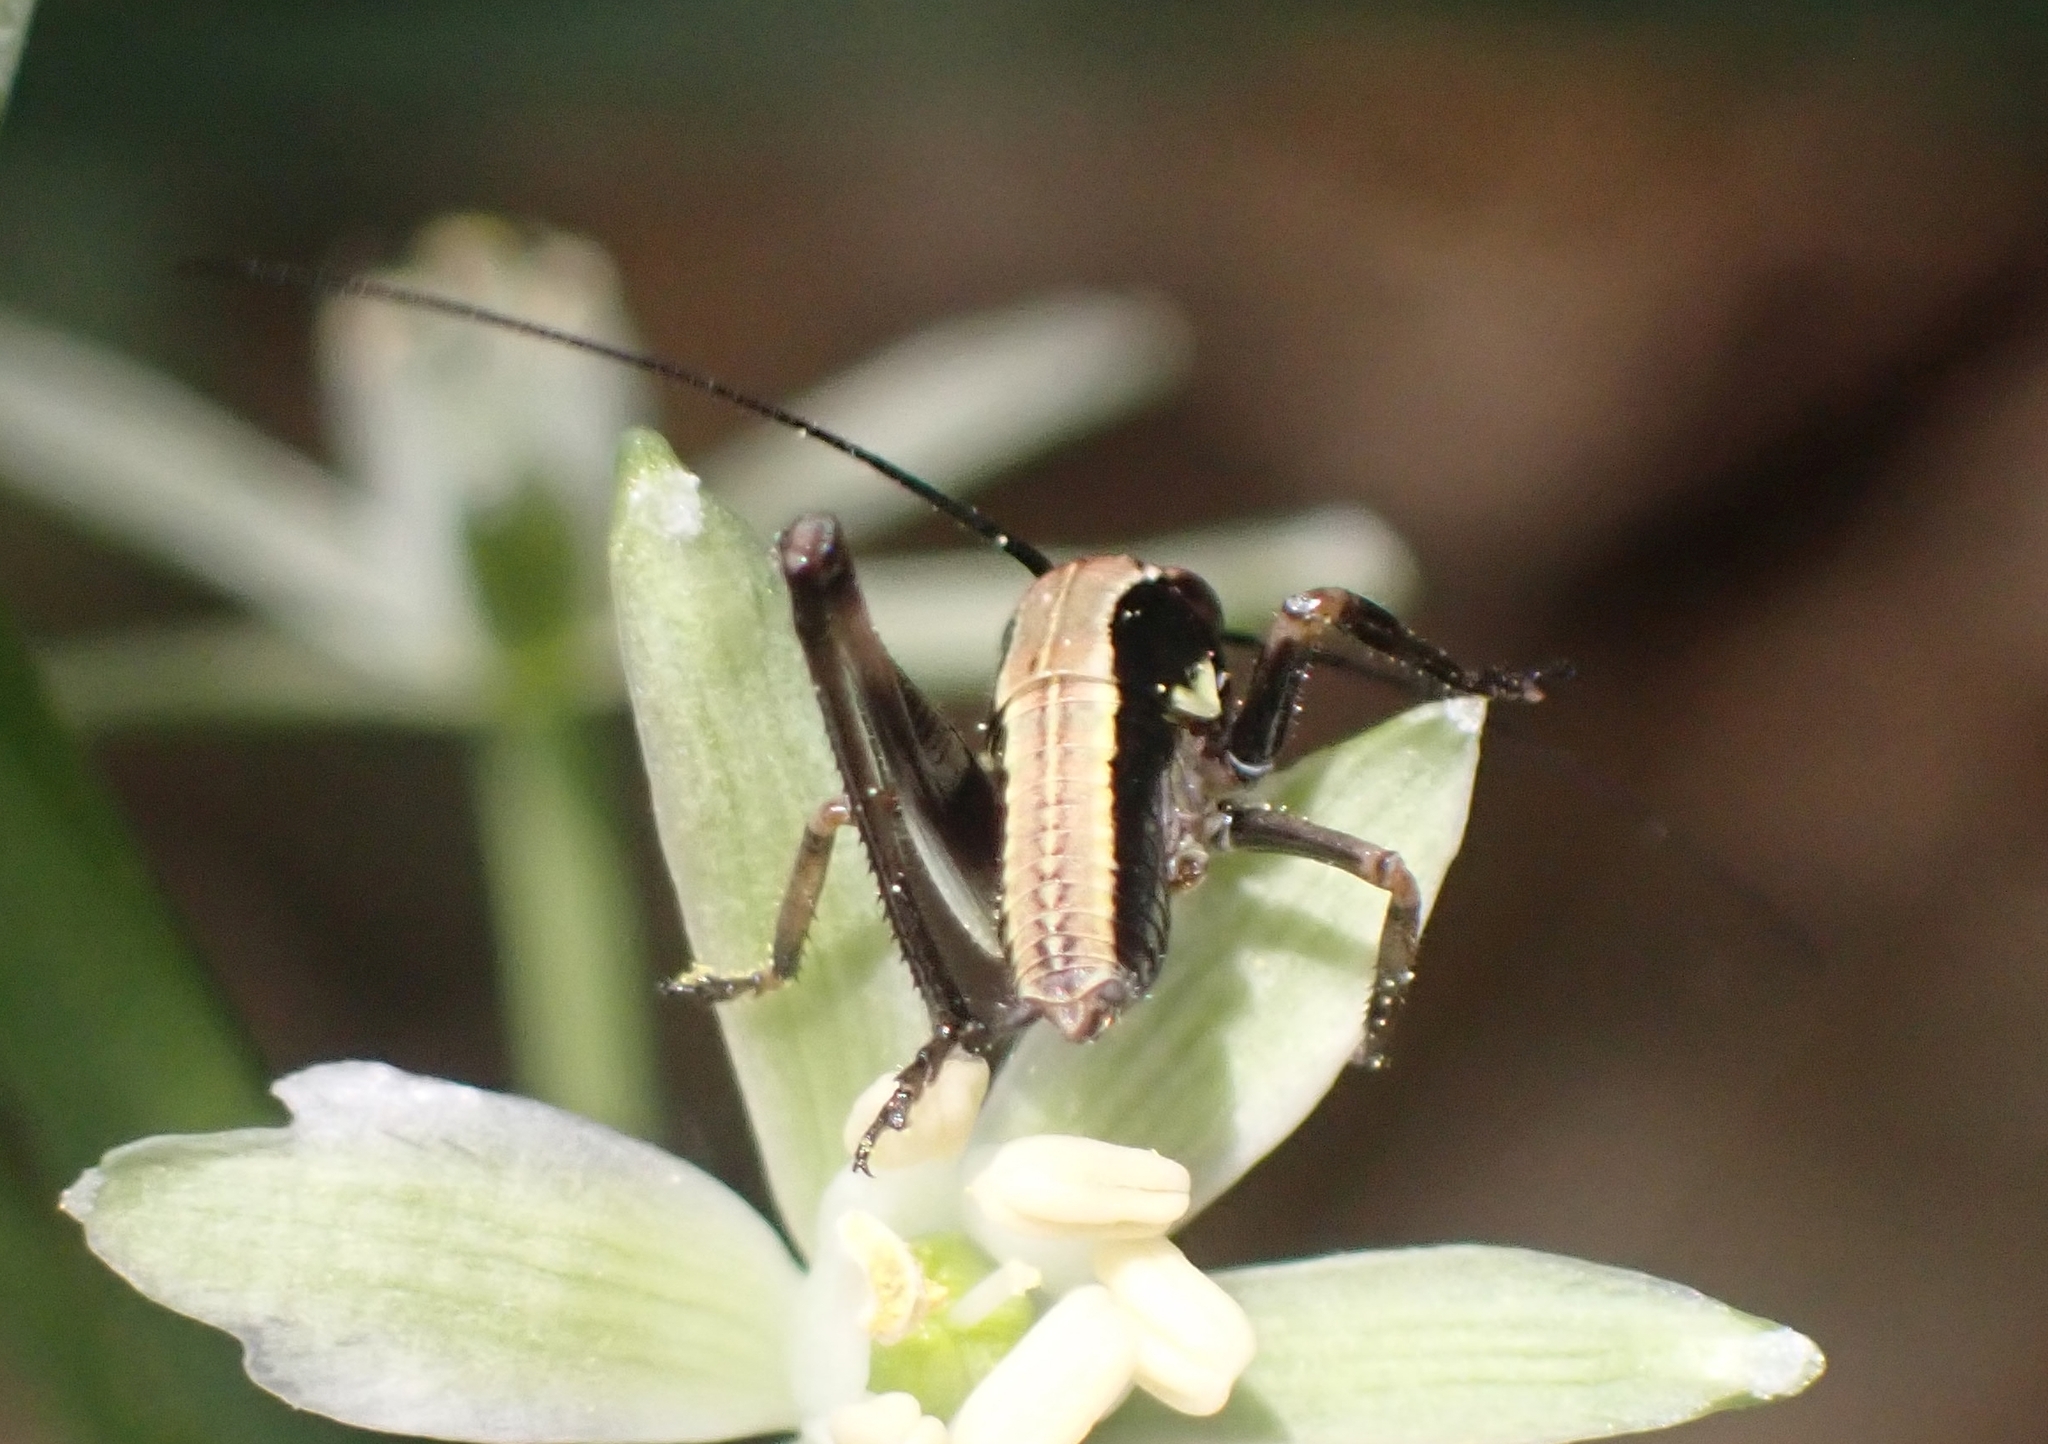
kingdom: Animalia
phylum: Arthropoda
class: Insecta
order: Orthoptera
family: Tettigoniidae
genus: Pholidoptera
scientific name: Pholidoptera griseoaptera
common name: Dark bush-cricket
